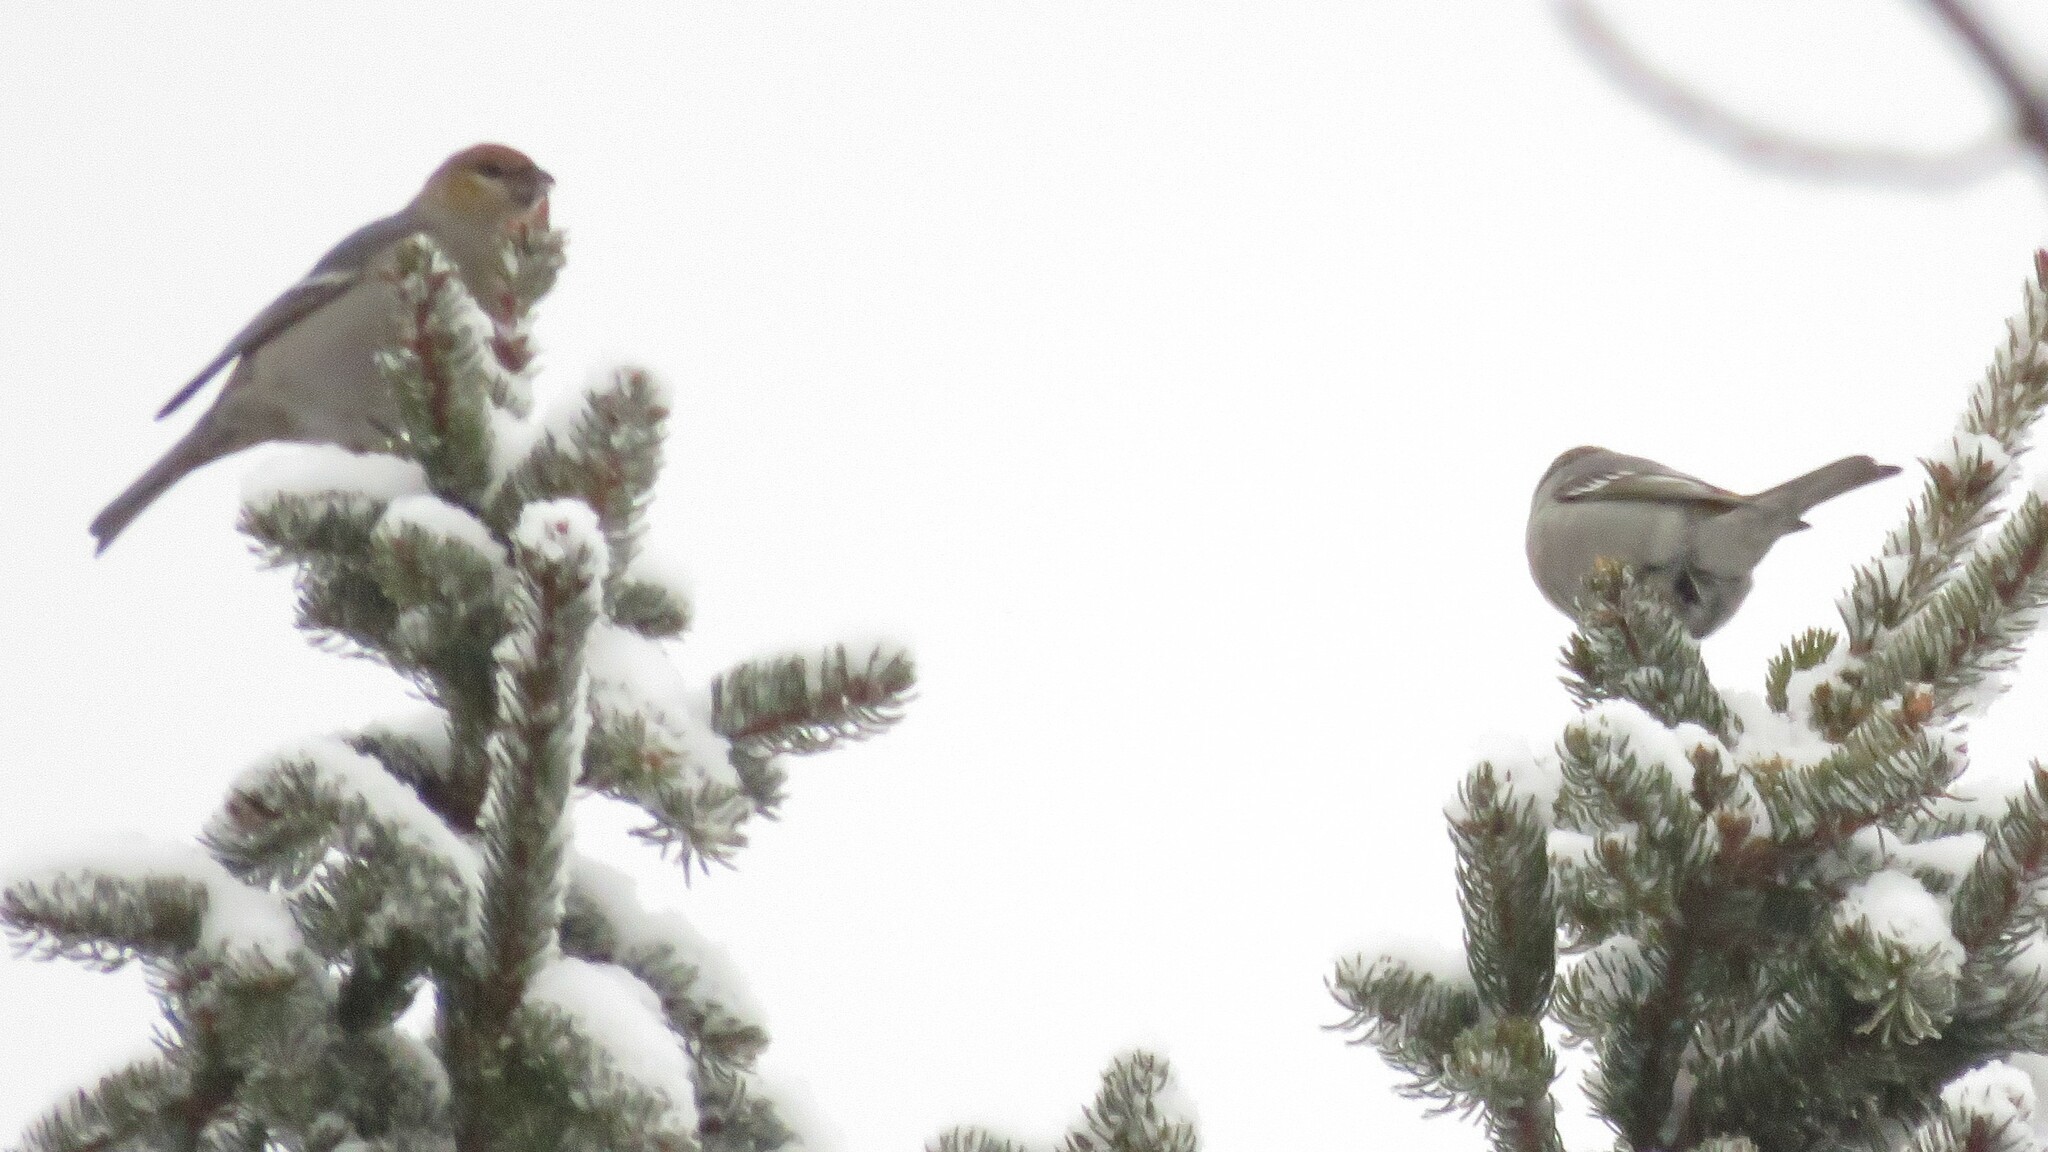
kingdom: Animalia
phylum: Chordata
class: Aves
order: Passeriformes
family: Fringillidae
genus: Pinicola
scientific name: Pinicola enucleator
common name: Pine grosbeak
